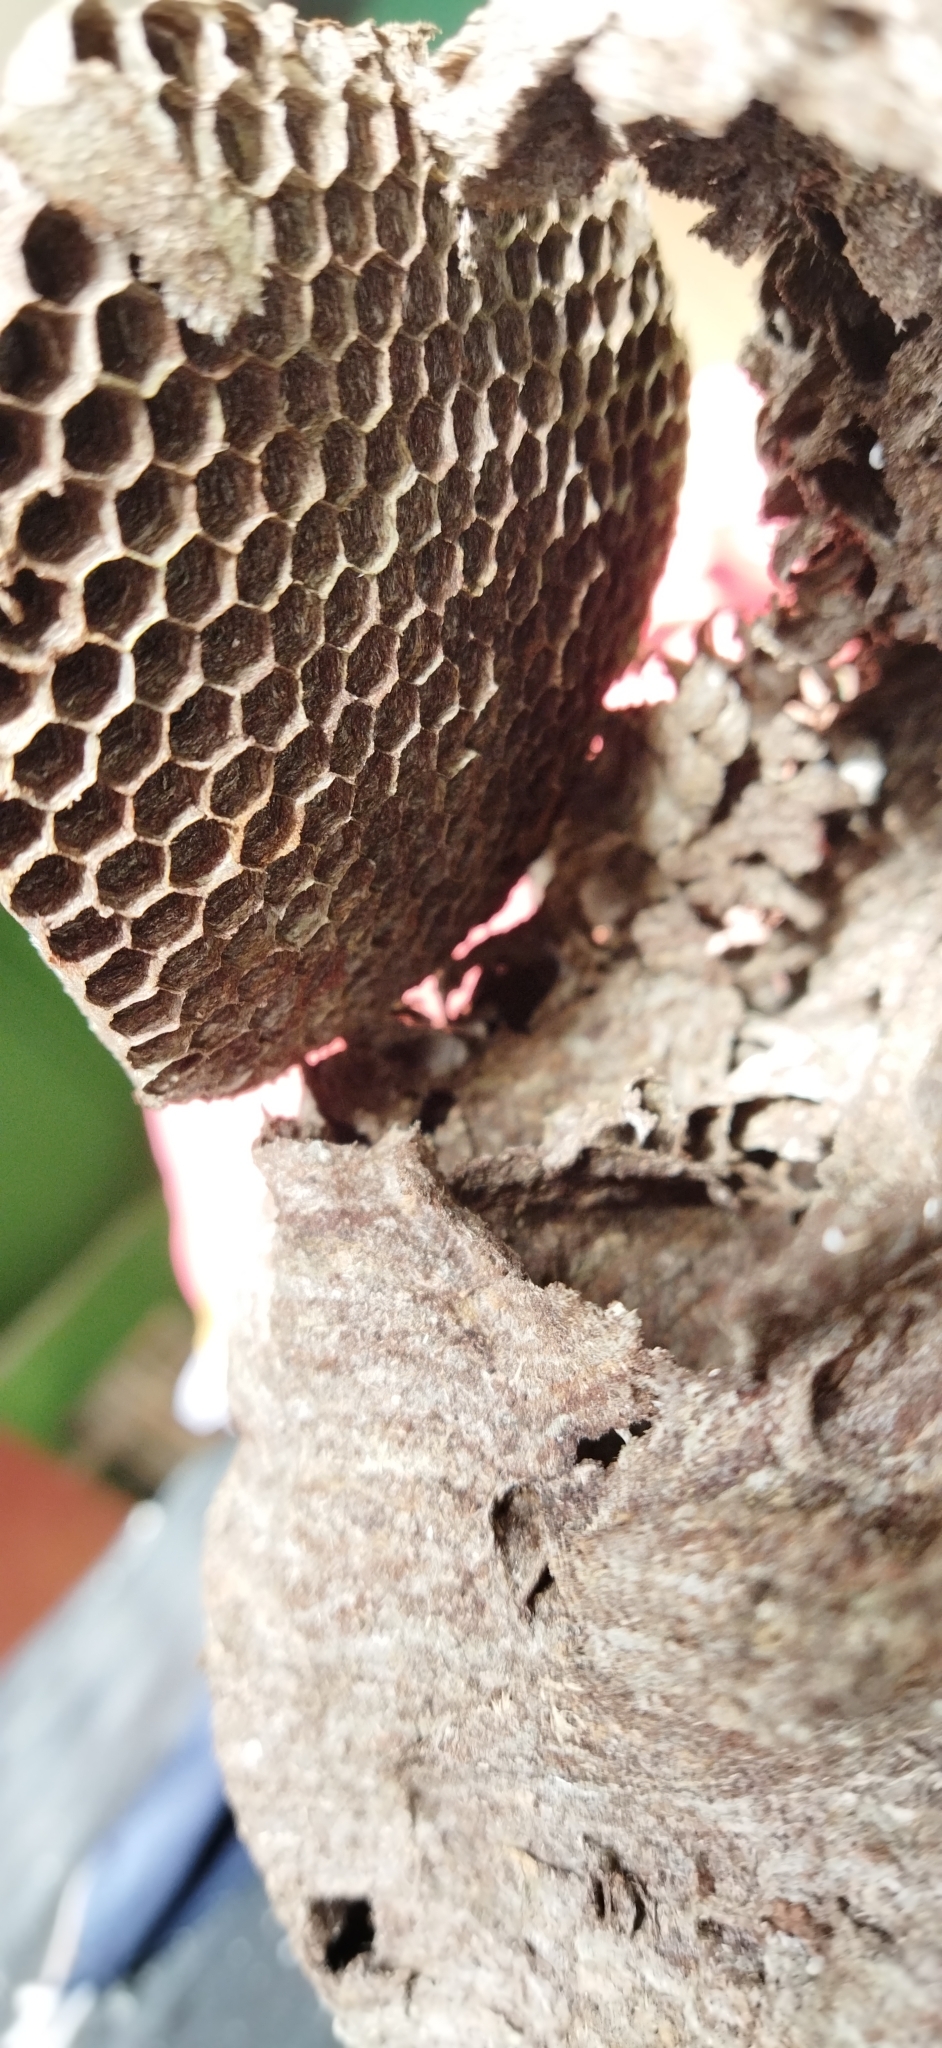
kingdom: Animalia
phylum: Arthropoda
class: Insecta
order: Hymenoptera
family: Eumenidae
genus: Polybia
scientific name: Polybia sericea
